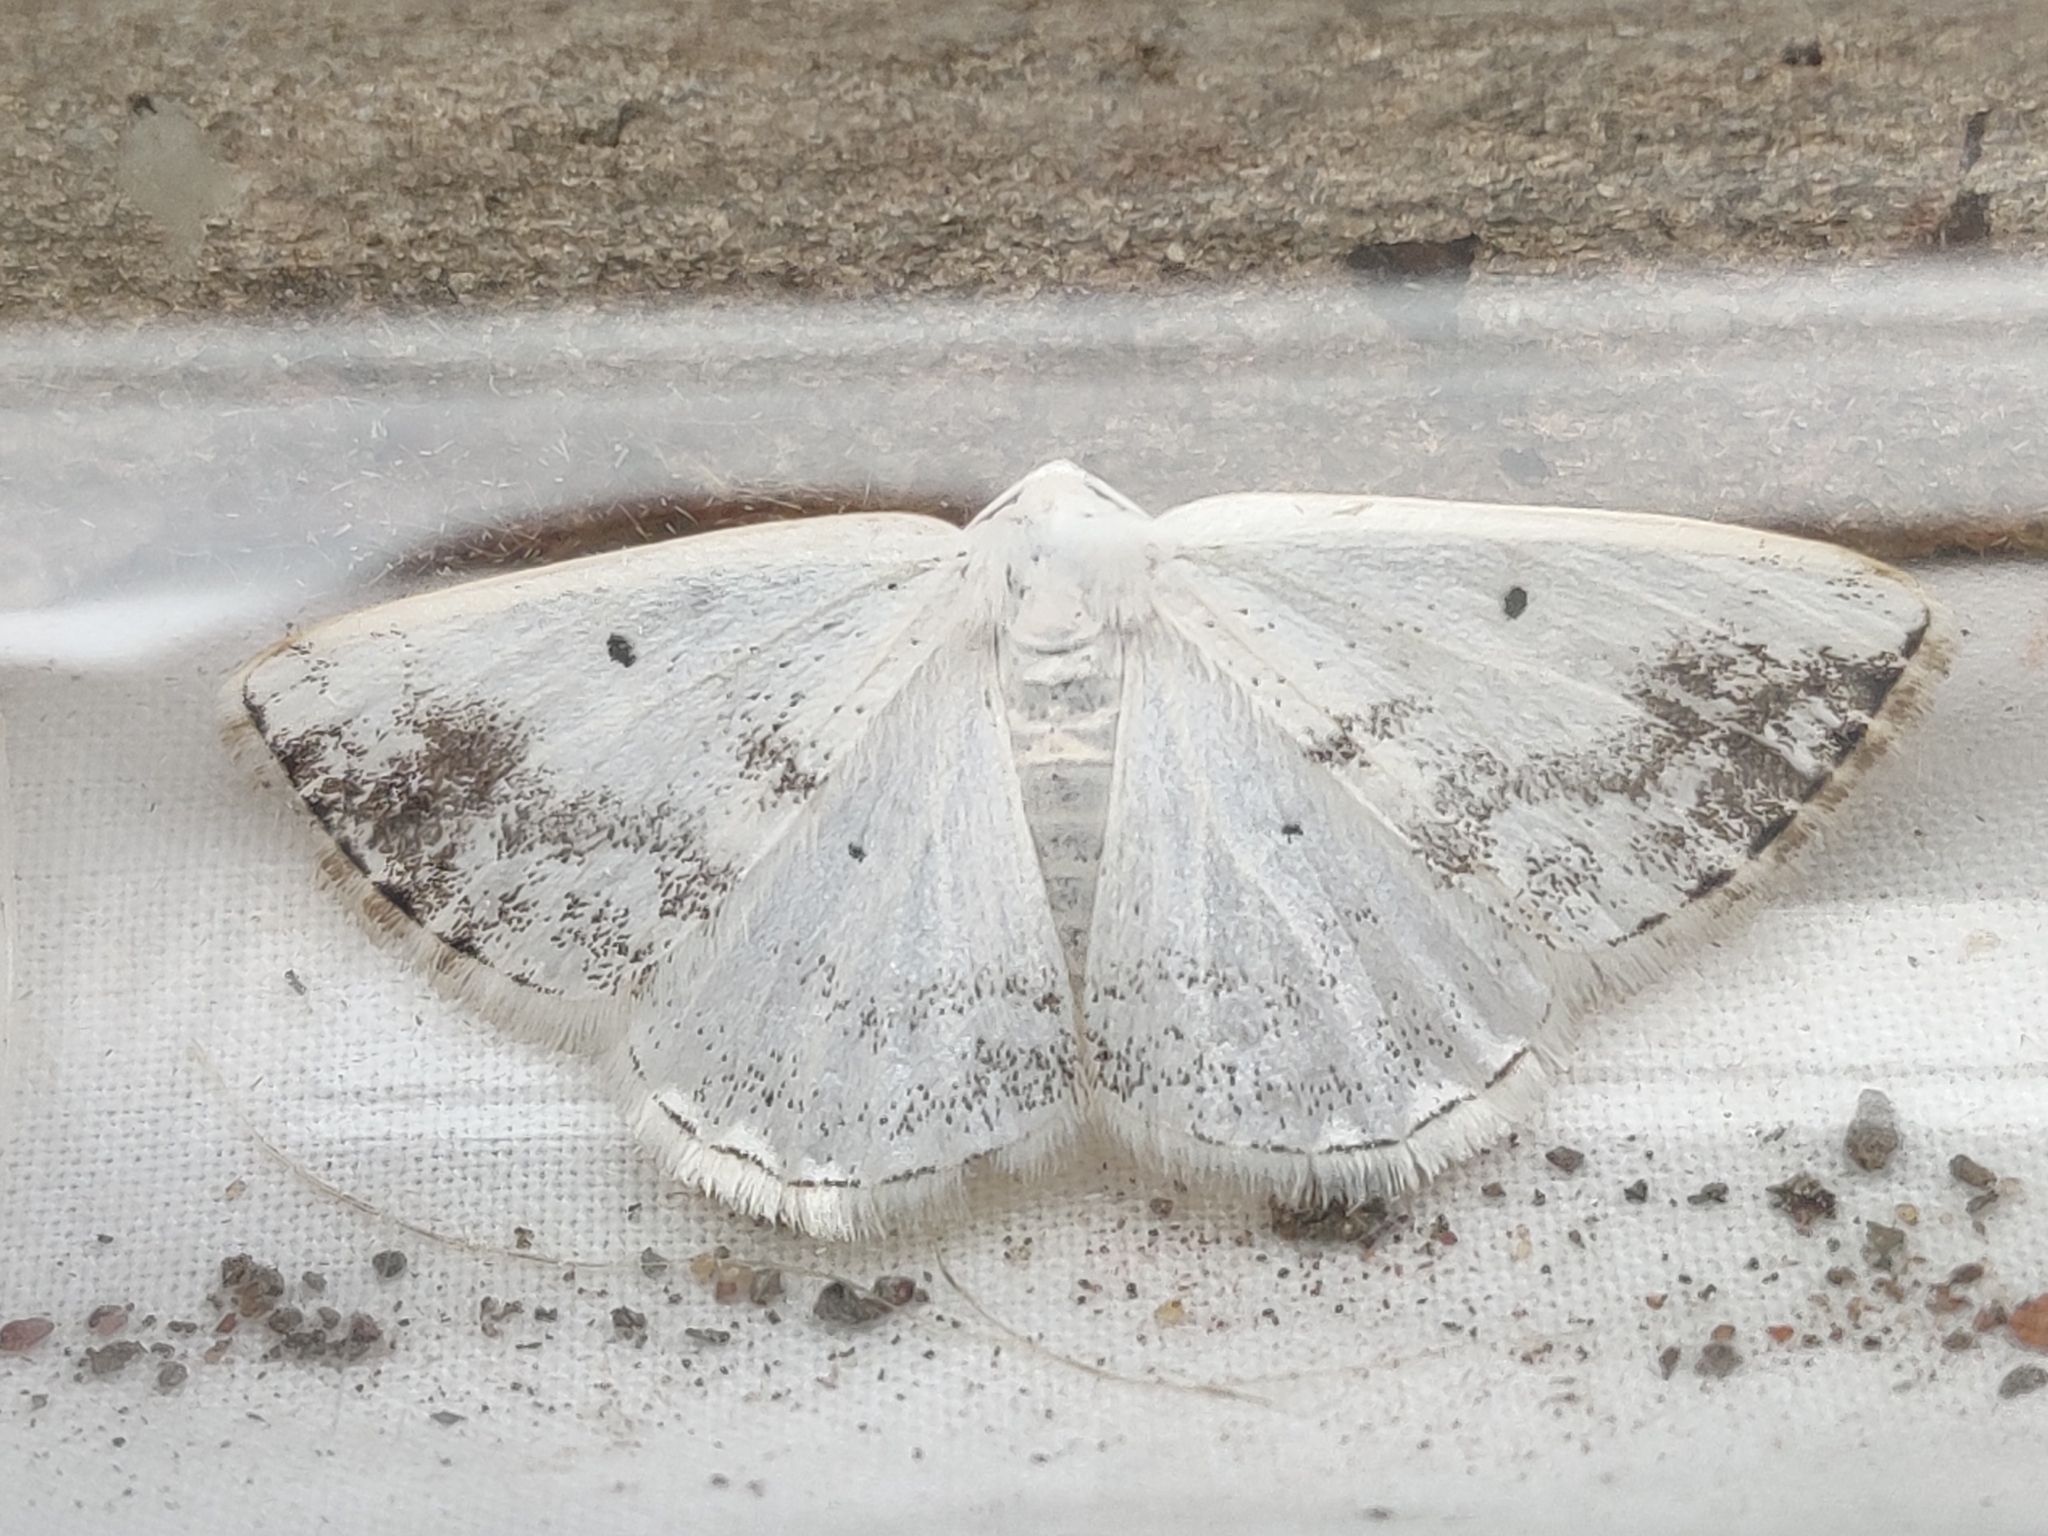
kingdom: Animalia
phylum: Arthropoda
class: Insecta
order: Lepidoptera
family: Geometridae
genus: Lomographa
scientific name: Lomographa temerata
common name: Clouded silver
